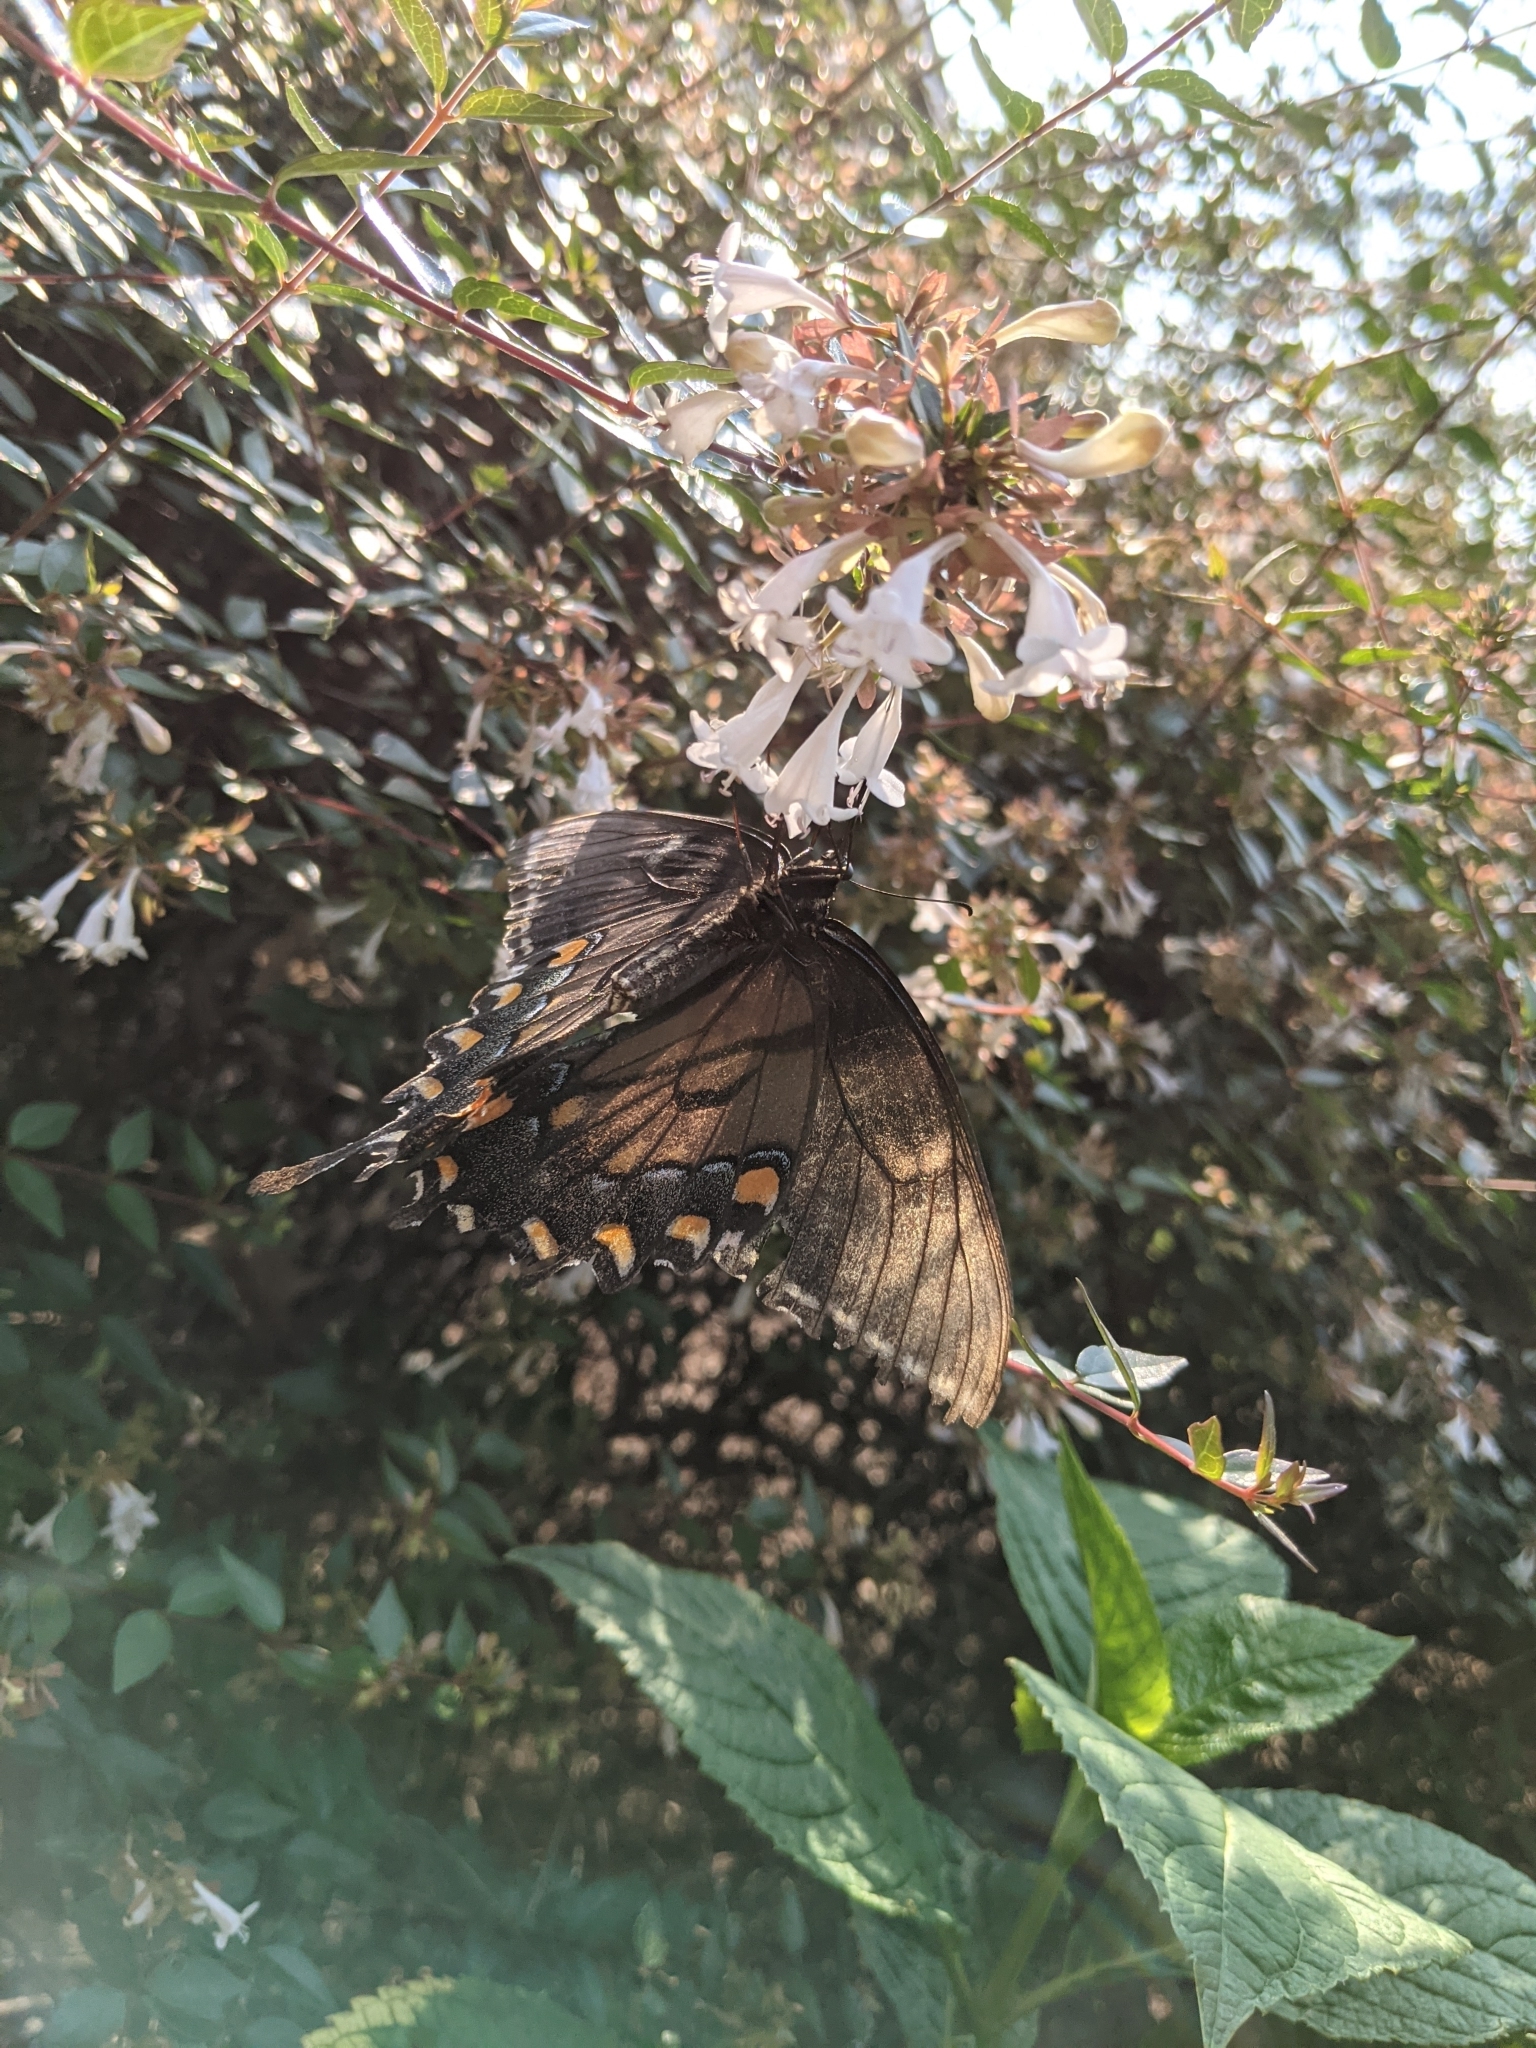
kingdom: Animalia
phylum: Arthropoda
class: Insecta
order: Lepidoptera
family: Papilionidae
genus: Papilio
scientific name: Papilio glaucus
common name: Tiger swallowtail
